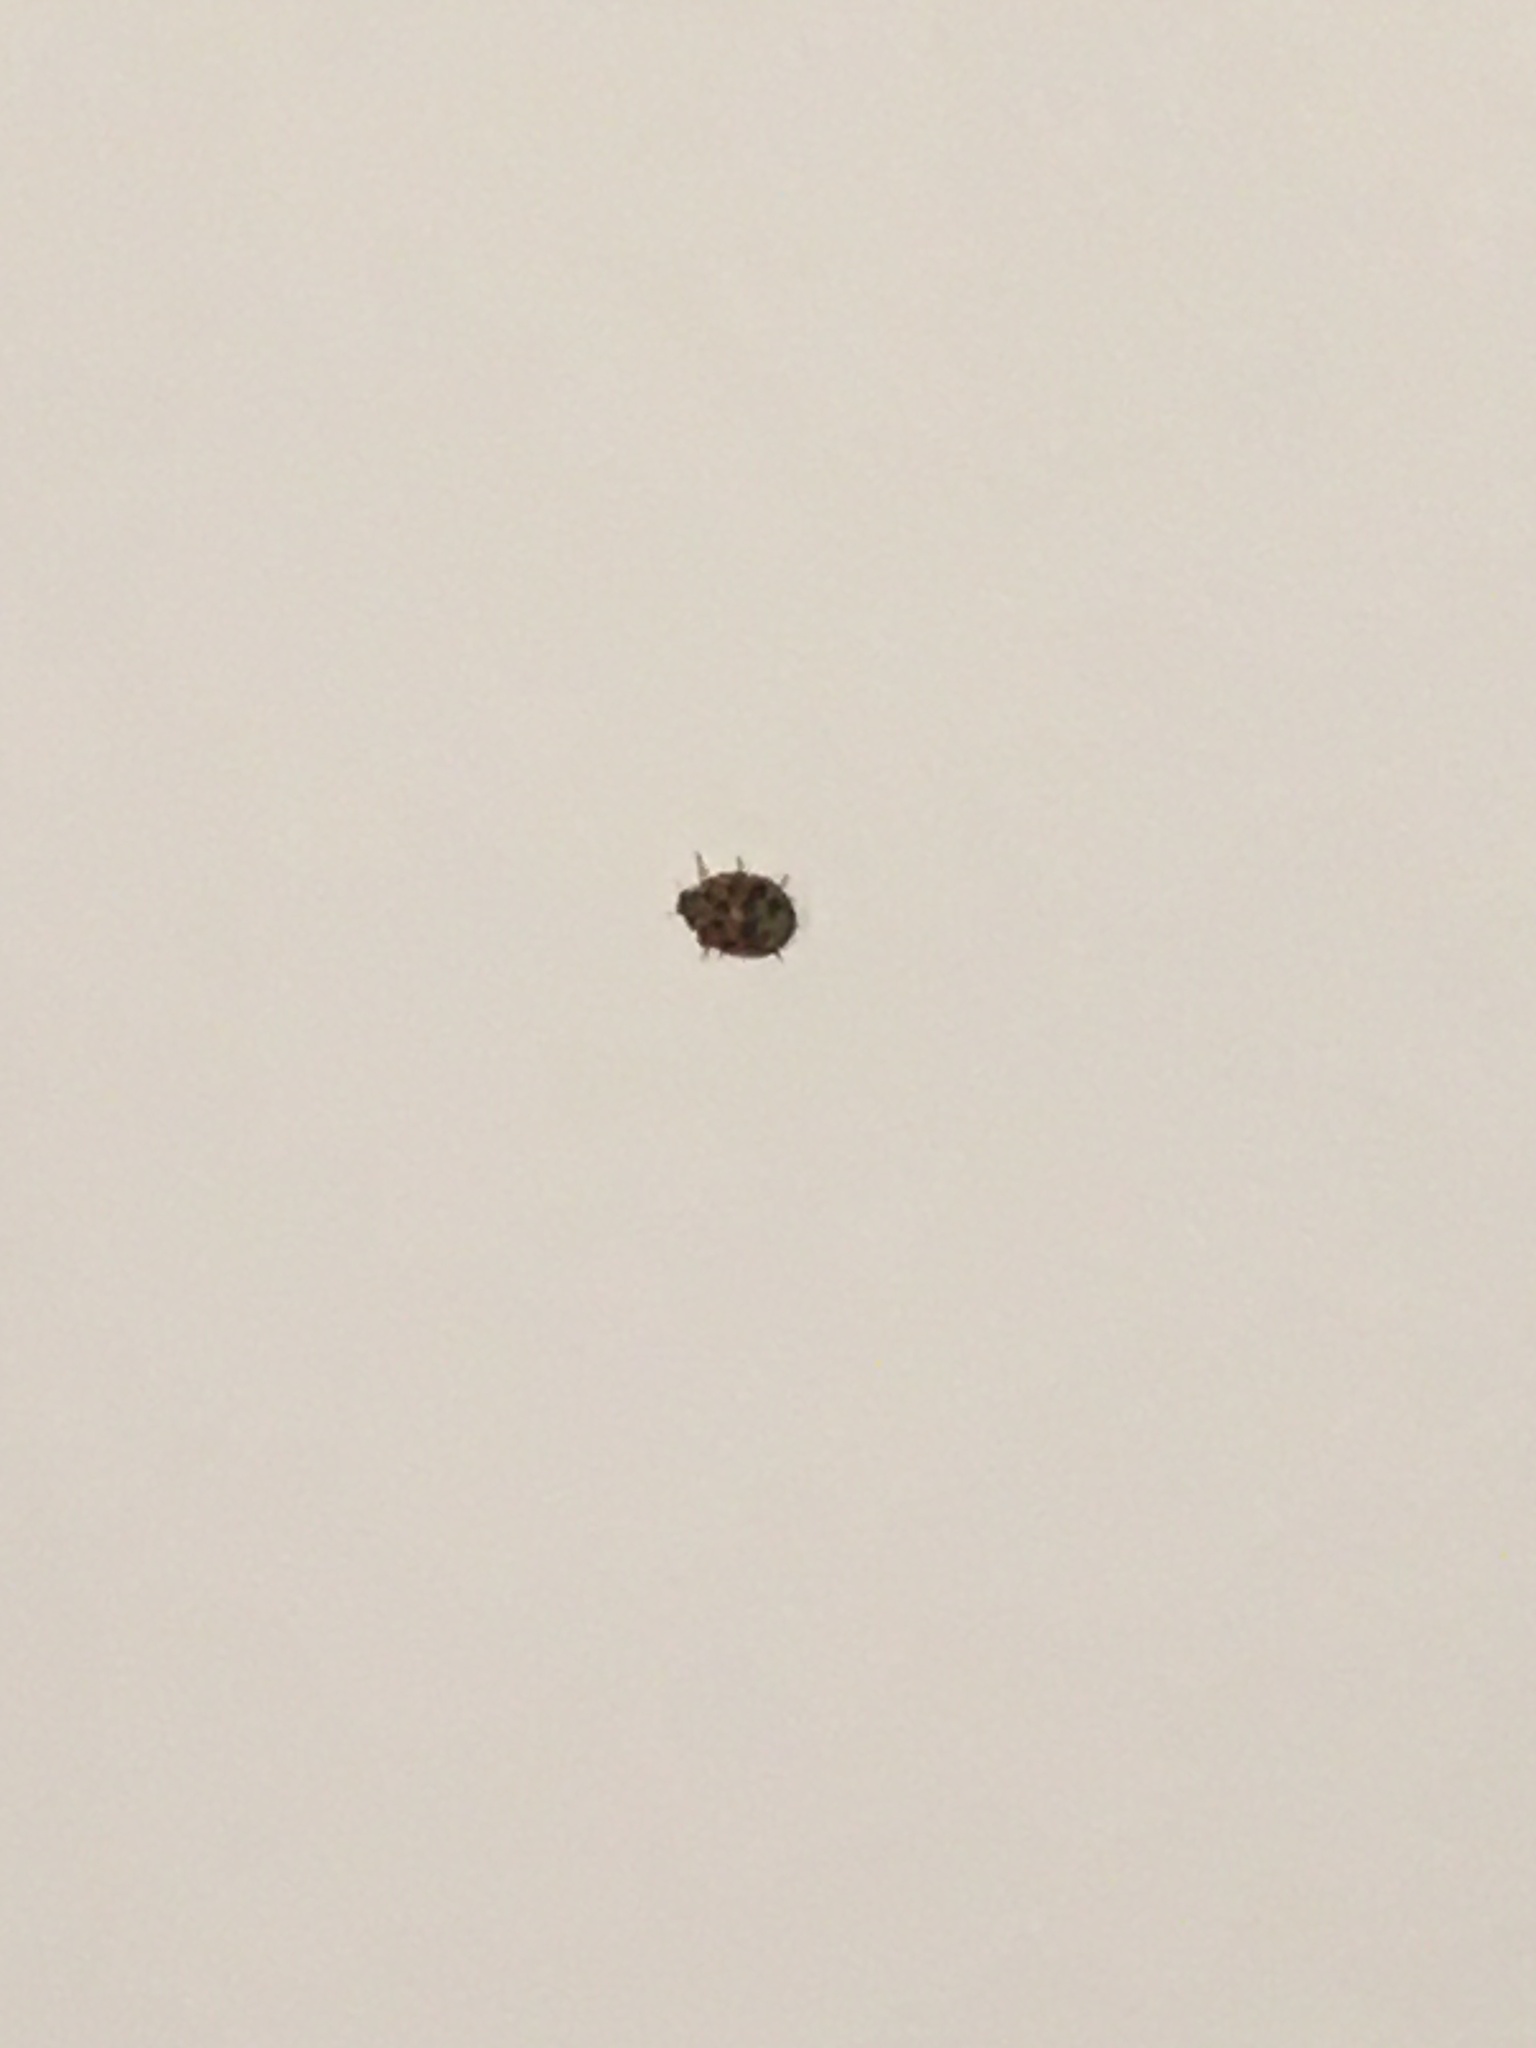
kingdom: Animalia
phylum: Arthropoda
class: Insecta
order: Coleoptera
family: Coccinellidae
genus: Harmonia
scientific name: Harmonia axyridis
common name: Harlequin ladybird
